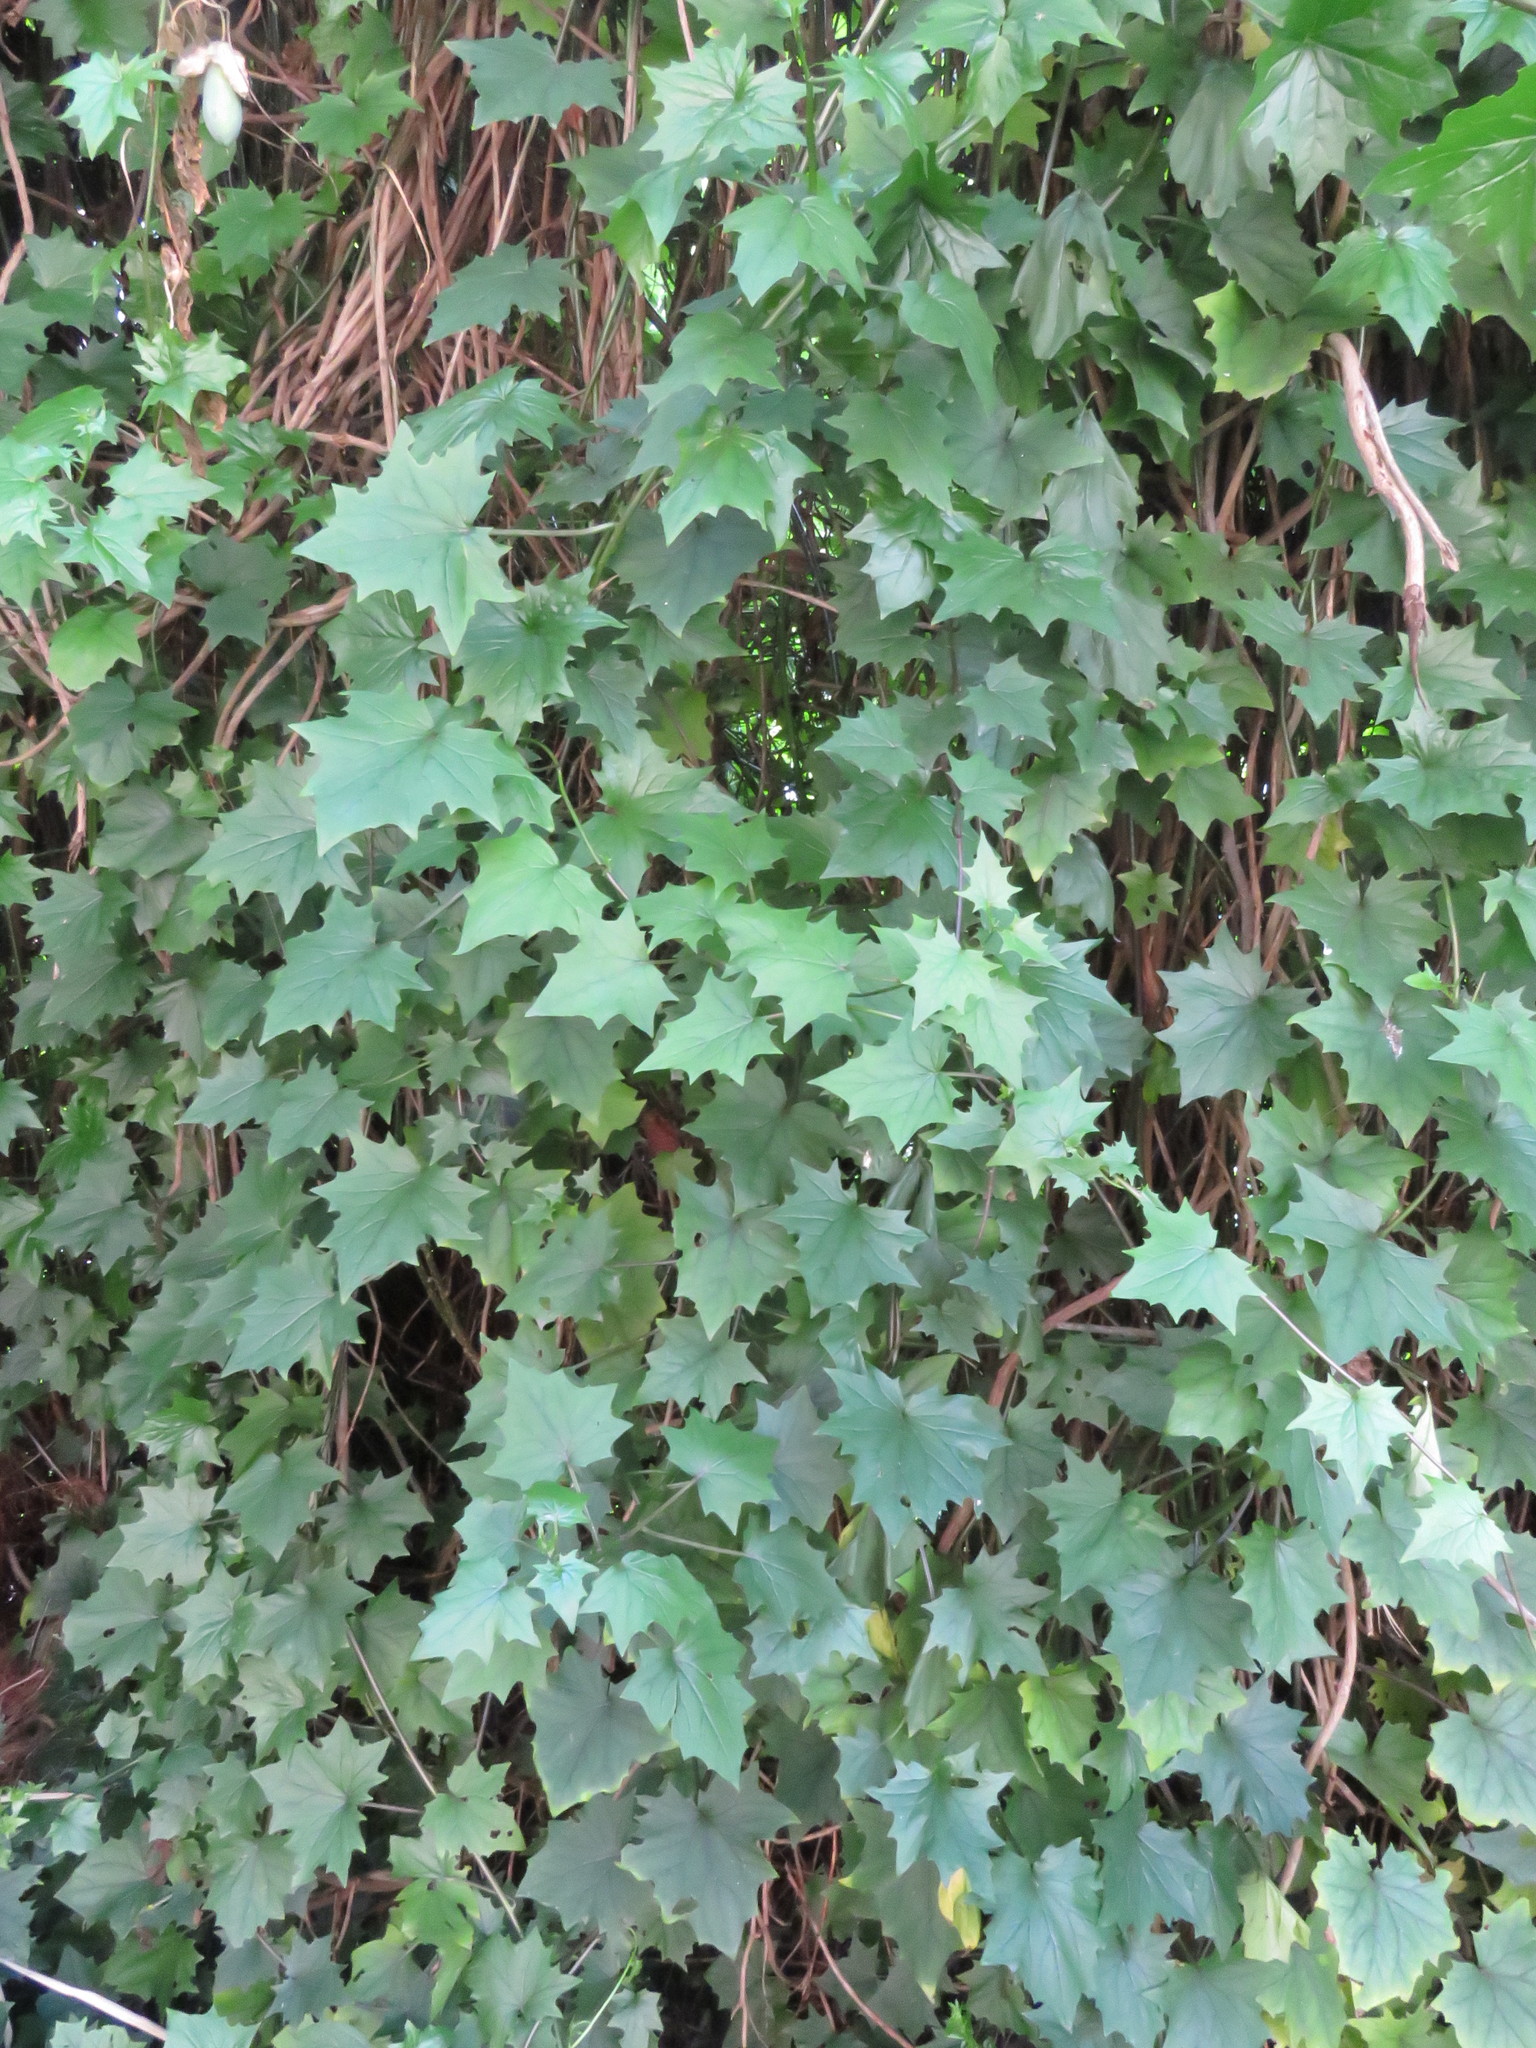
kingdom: Plantae
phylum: Tracheophyta
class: Magnoliopsida
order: Asterales
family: Asteraceae
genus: Senecio
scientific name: Senecio tamoides
